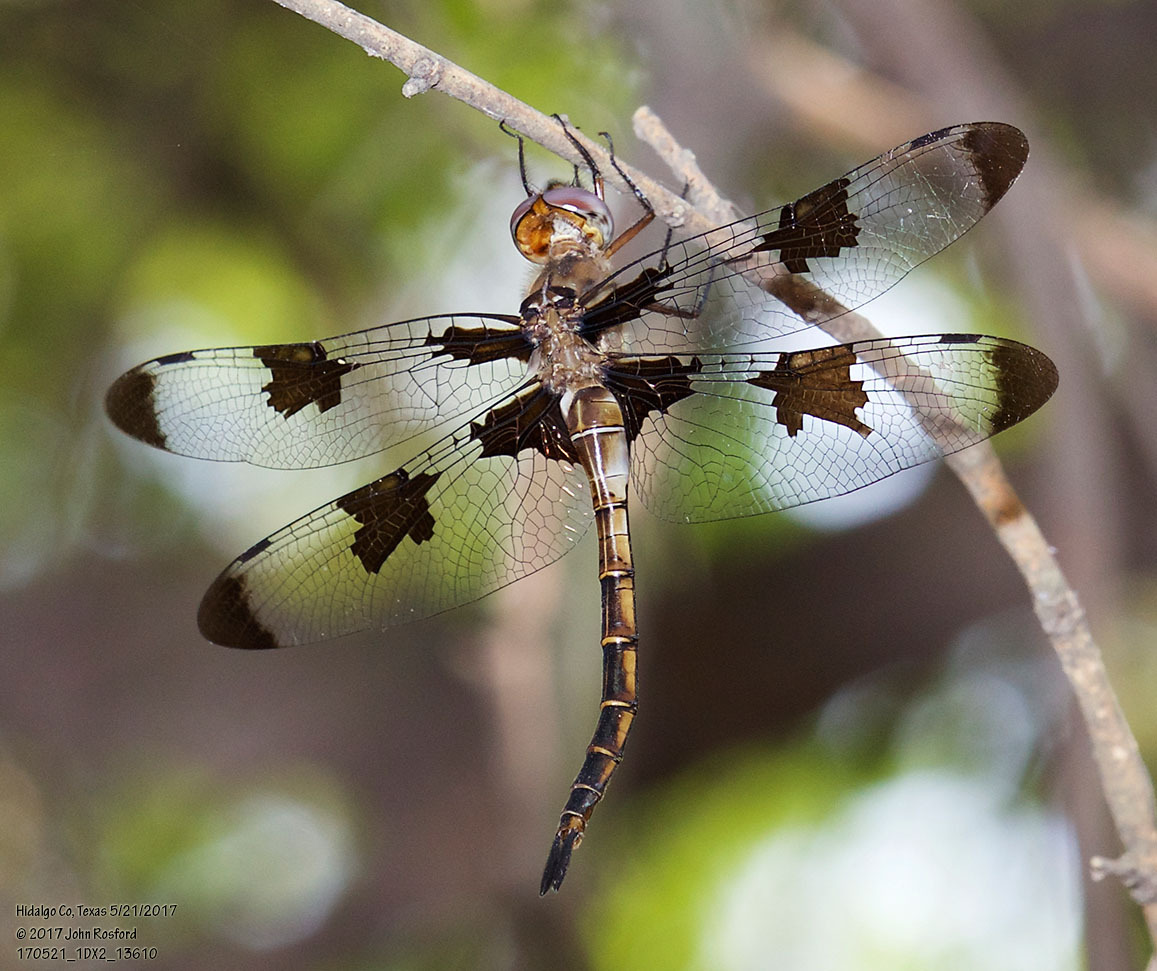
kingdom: Animalia
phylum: Arthropoda
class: Insecta
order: Odonata
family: Corduliidae
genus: Epitheca
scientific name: Epitheca princeps
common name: Prince baskettail
